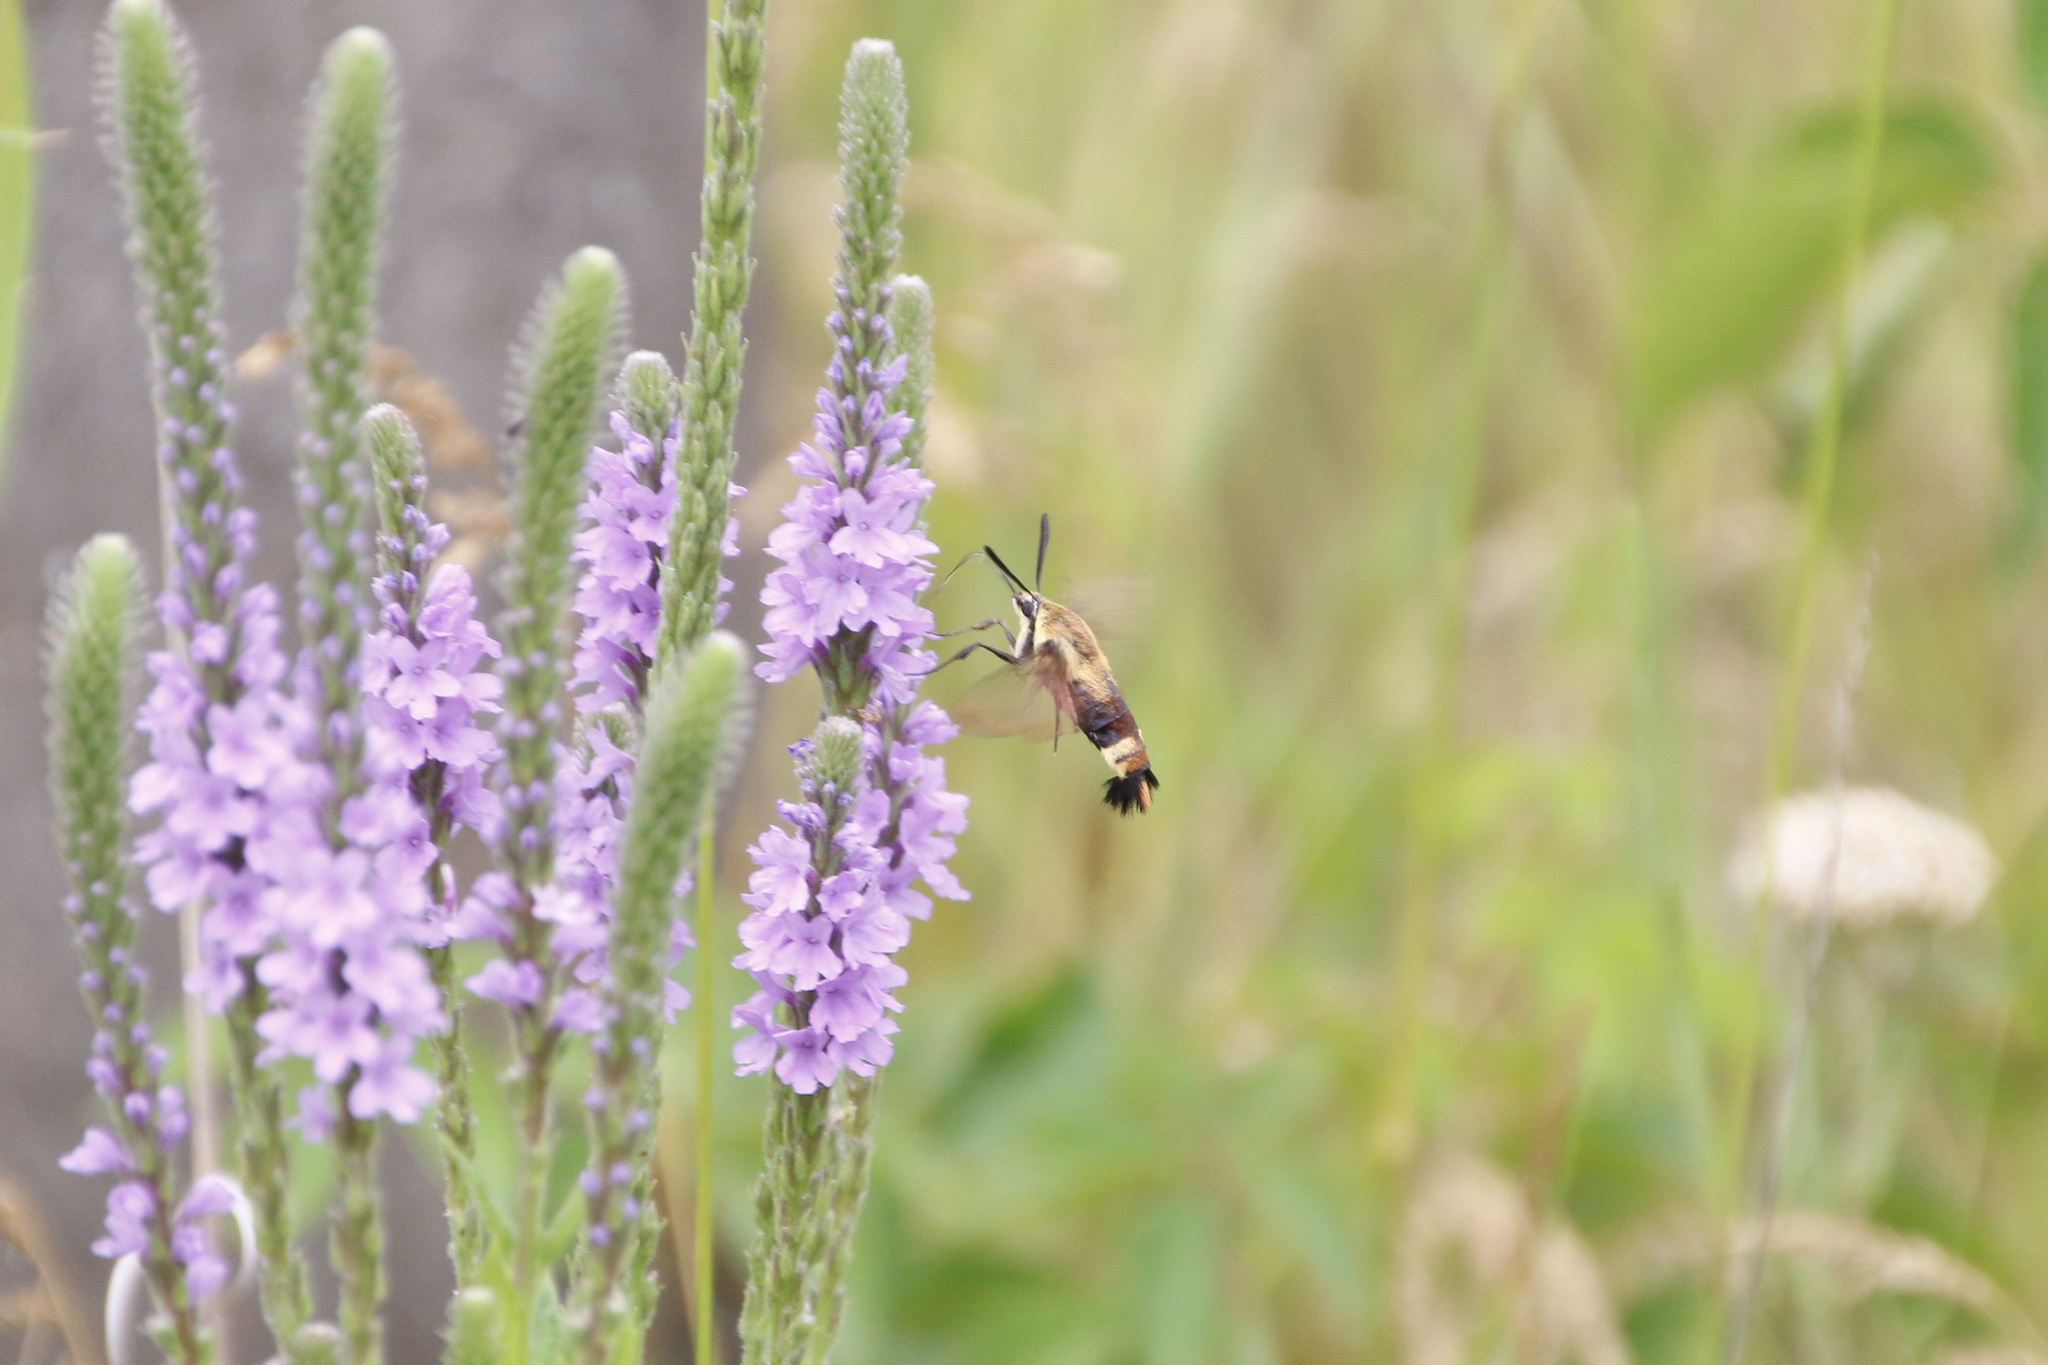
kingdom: Animalia
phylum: Arthropoda
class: Insecta
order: Lepidoptera
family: Sphingidae
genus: Hemaris
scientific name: Hemaris diffinis
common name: Bumblebee moth
